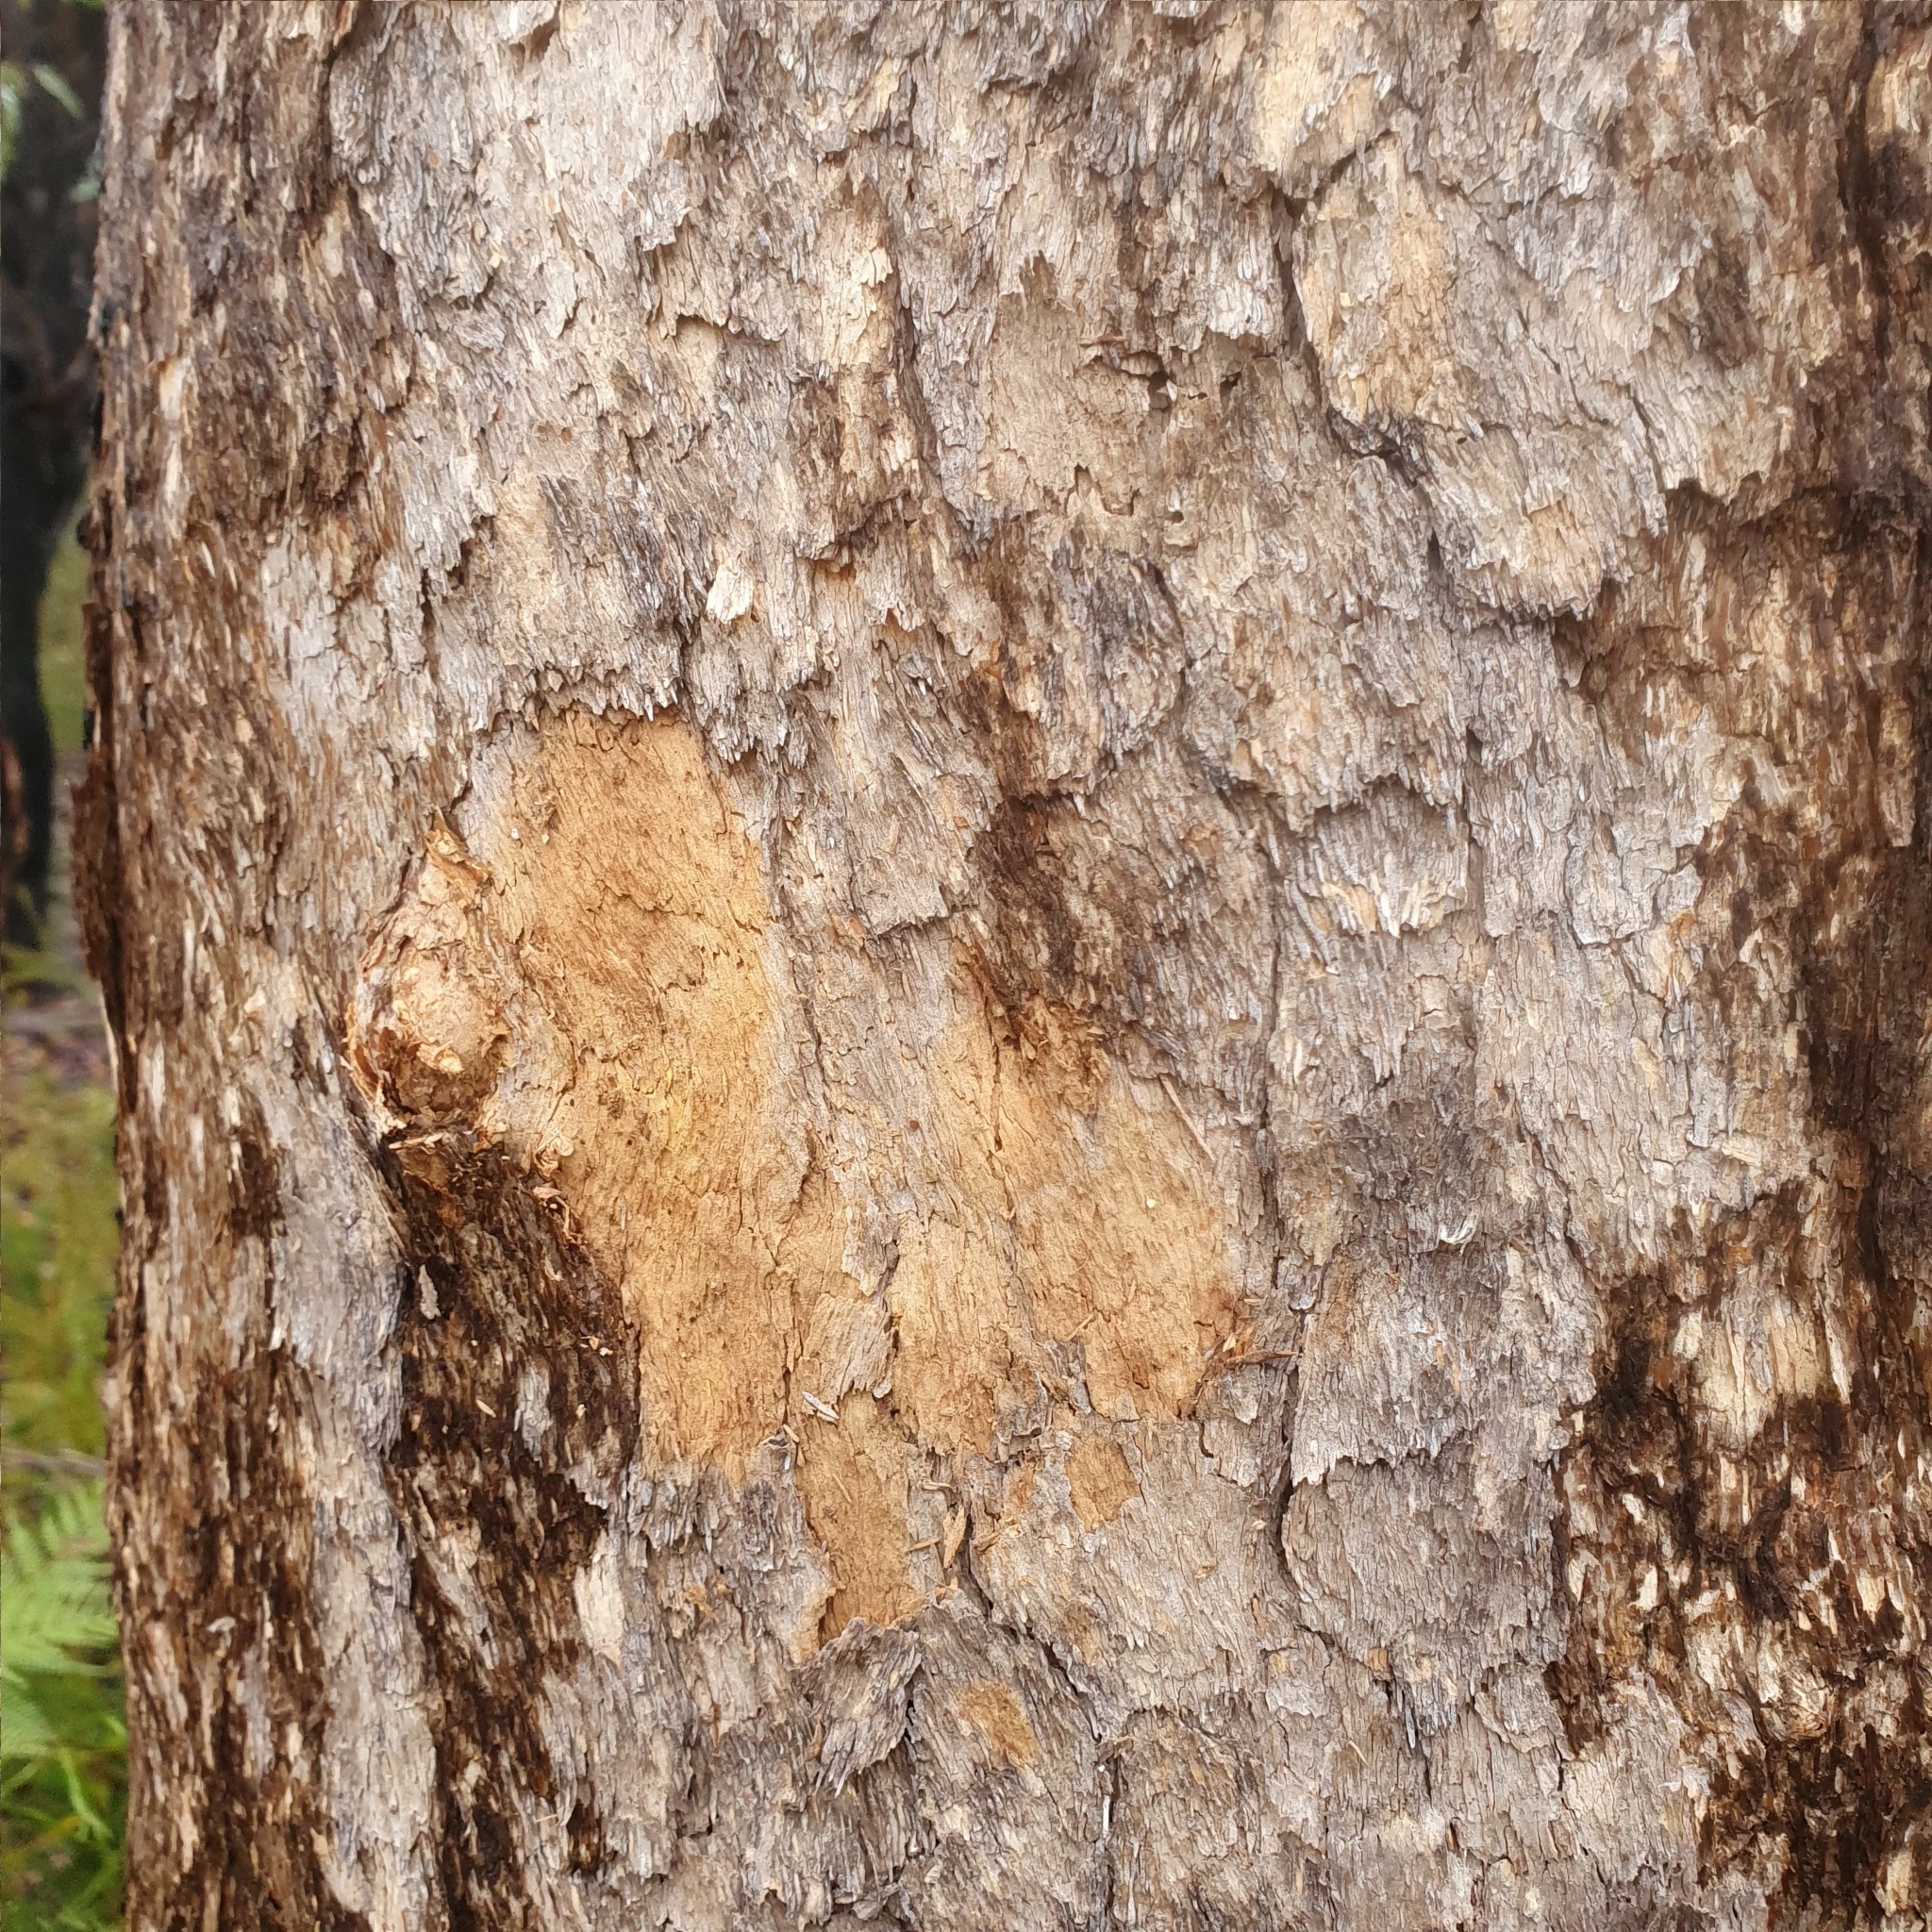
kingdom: Plantae
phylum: Tracheophyta
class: Magnoliopsida
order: Myrtales
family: Myrtaceae
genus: Corymbia
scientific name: Corymbia eximia
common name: Yellow bloodwood
